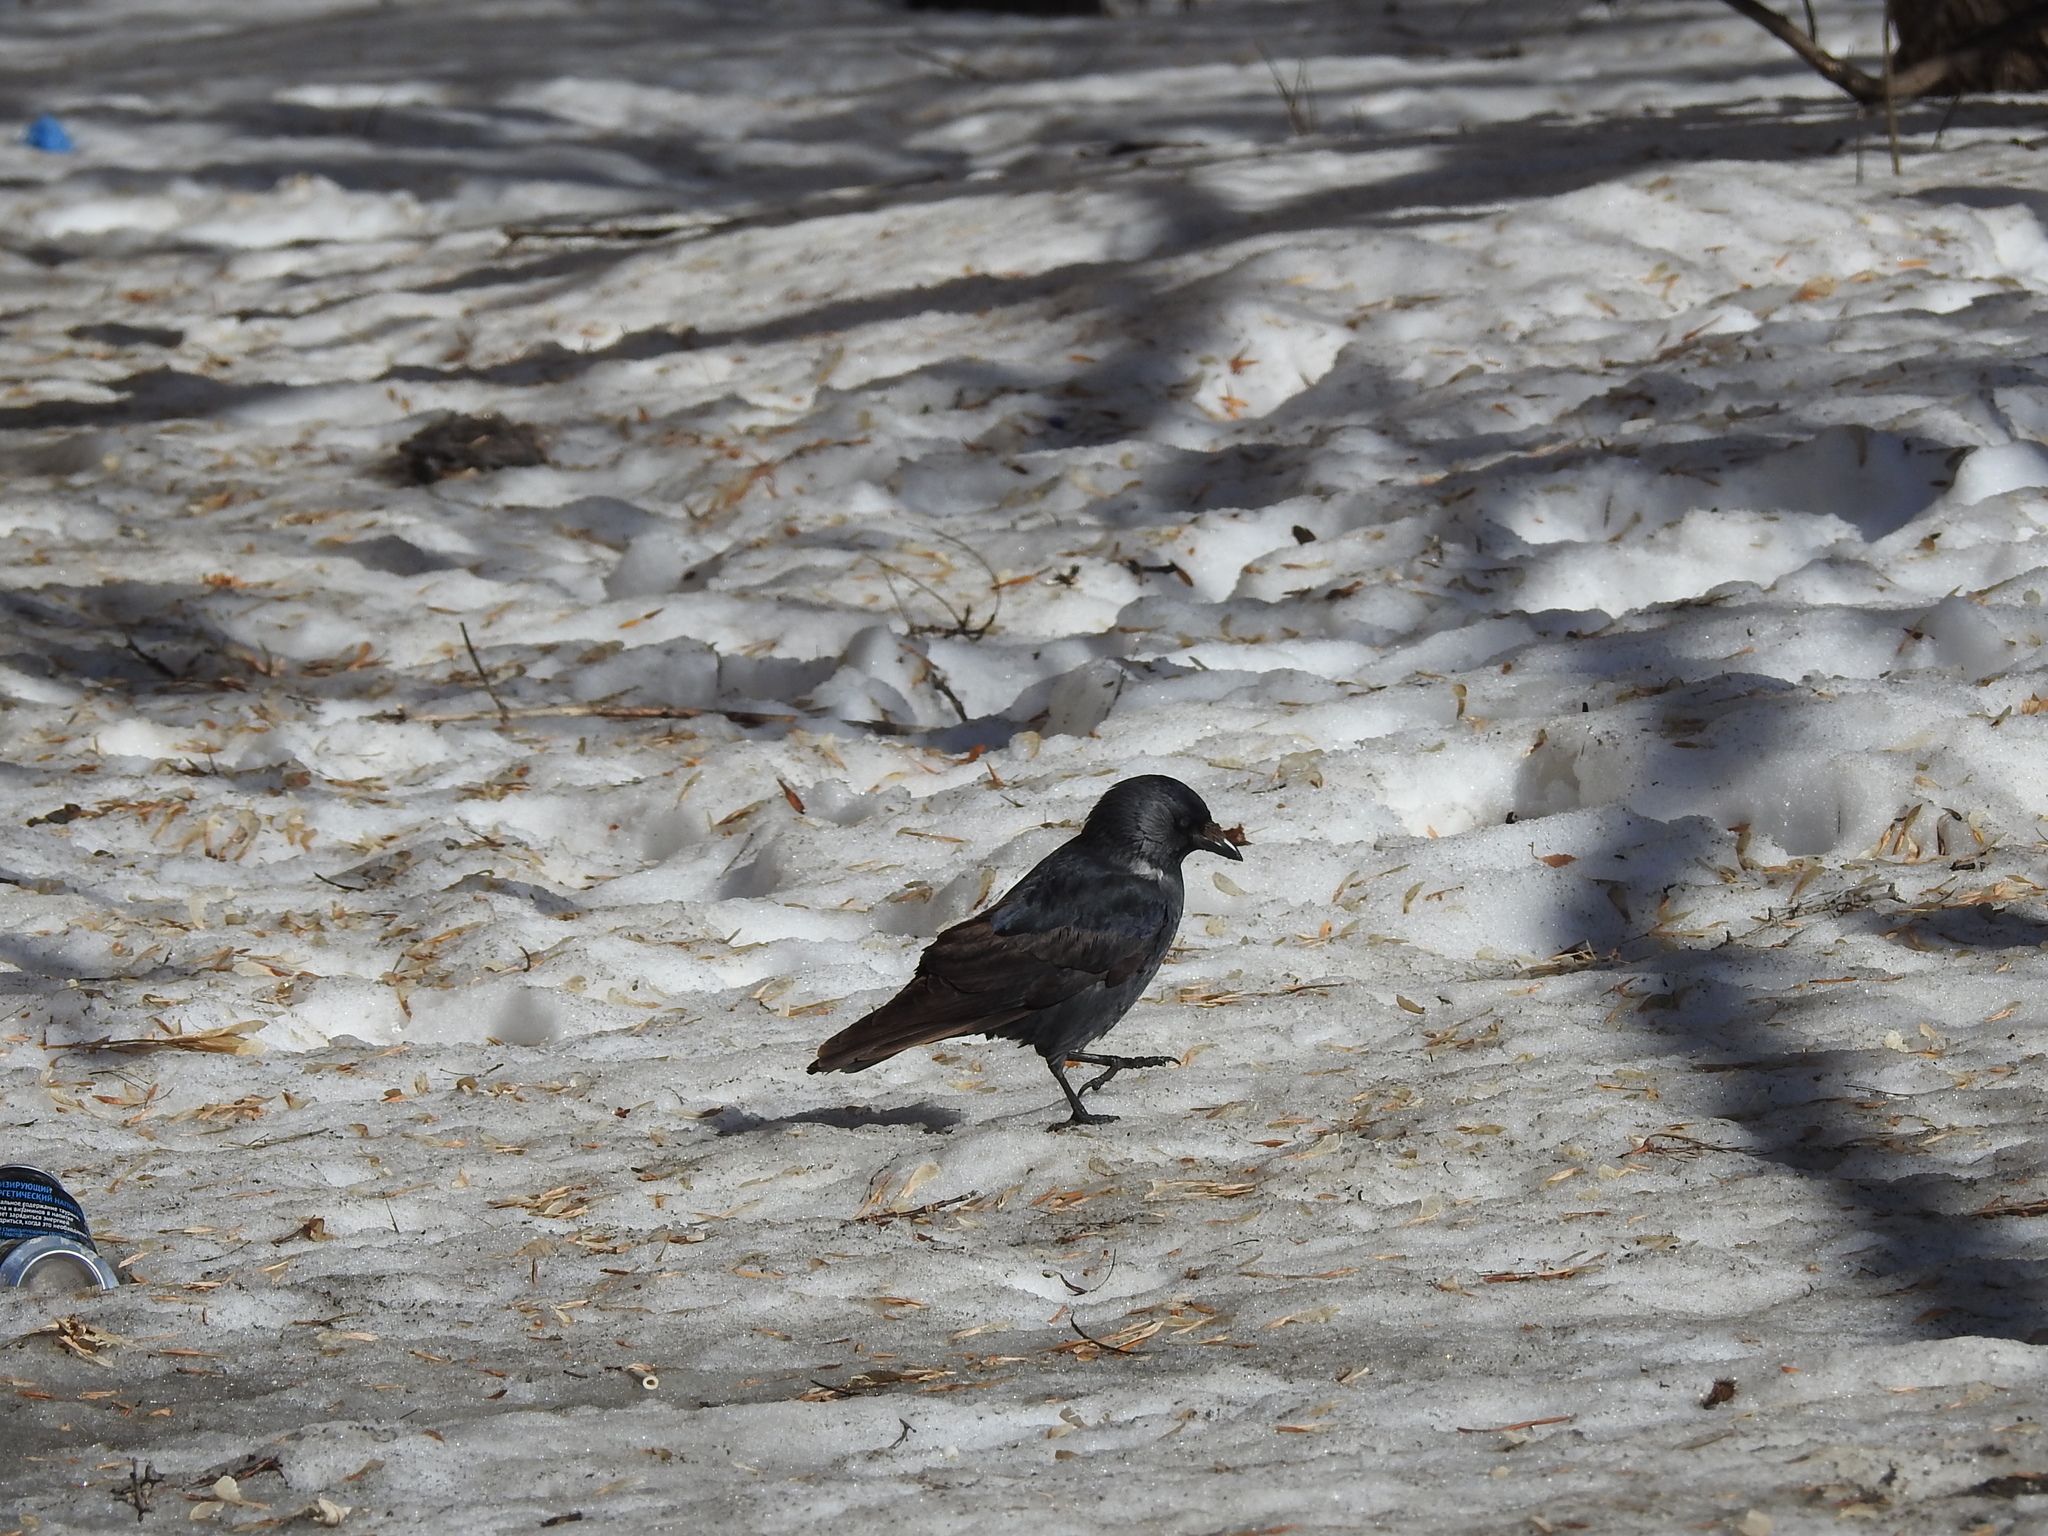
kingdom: Animalia
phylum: Chordata
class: Aves
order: Passeriformes
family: Corvidae
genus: Coloeus
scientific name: Coloeus monedula
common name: Western jackdaw
